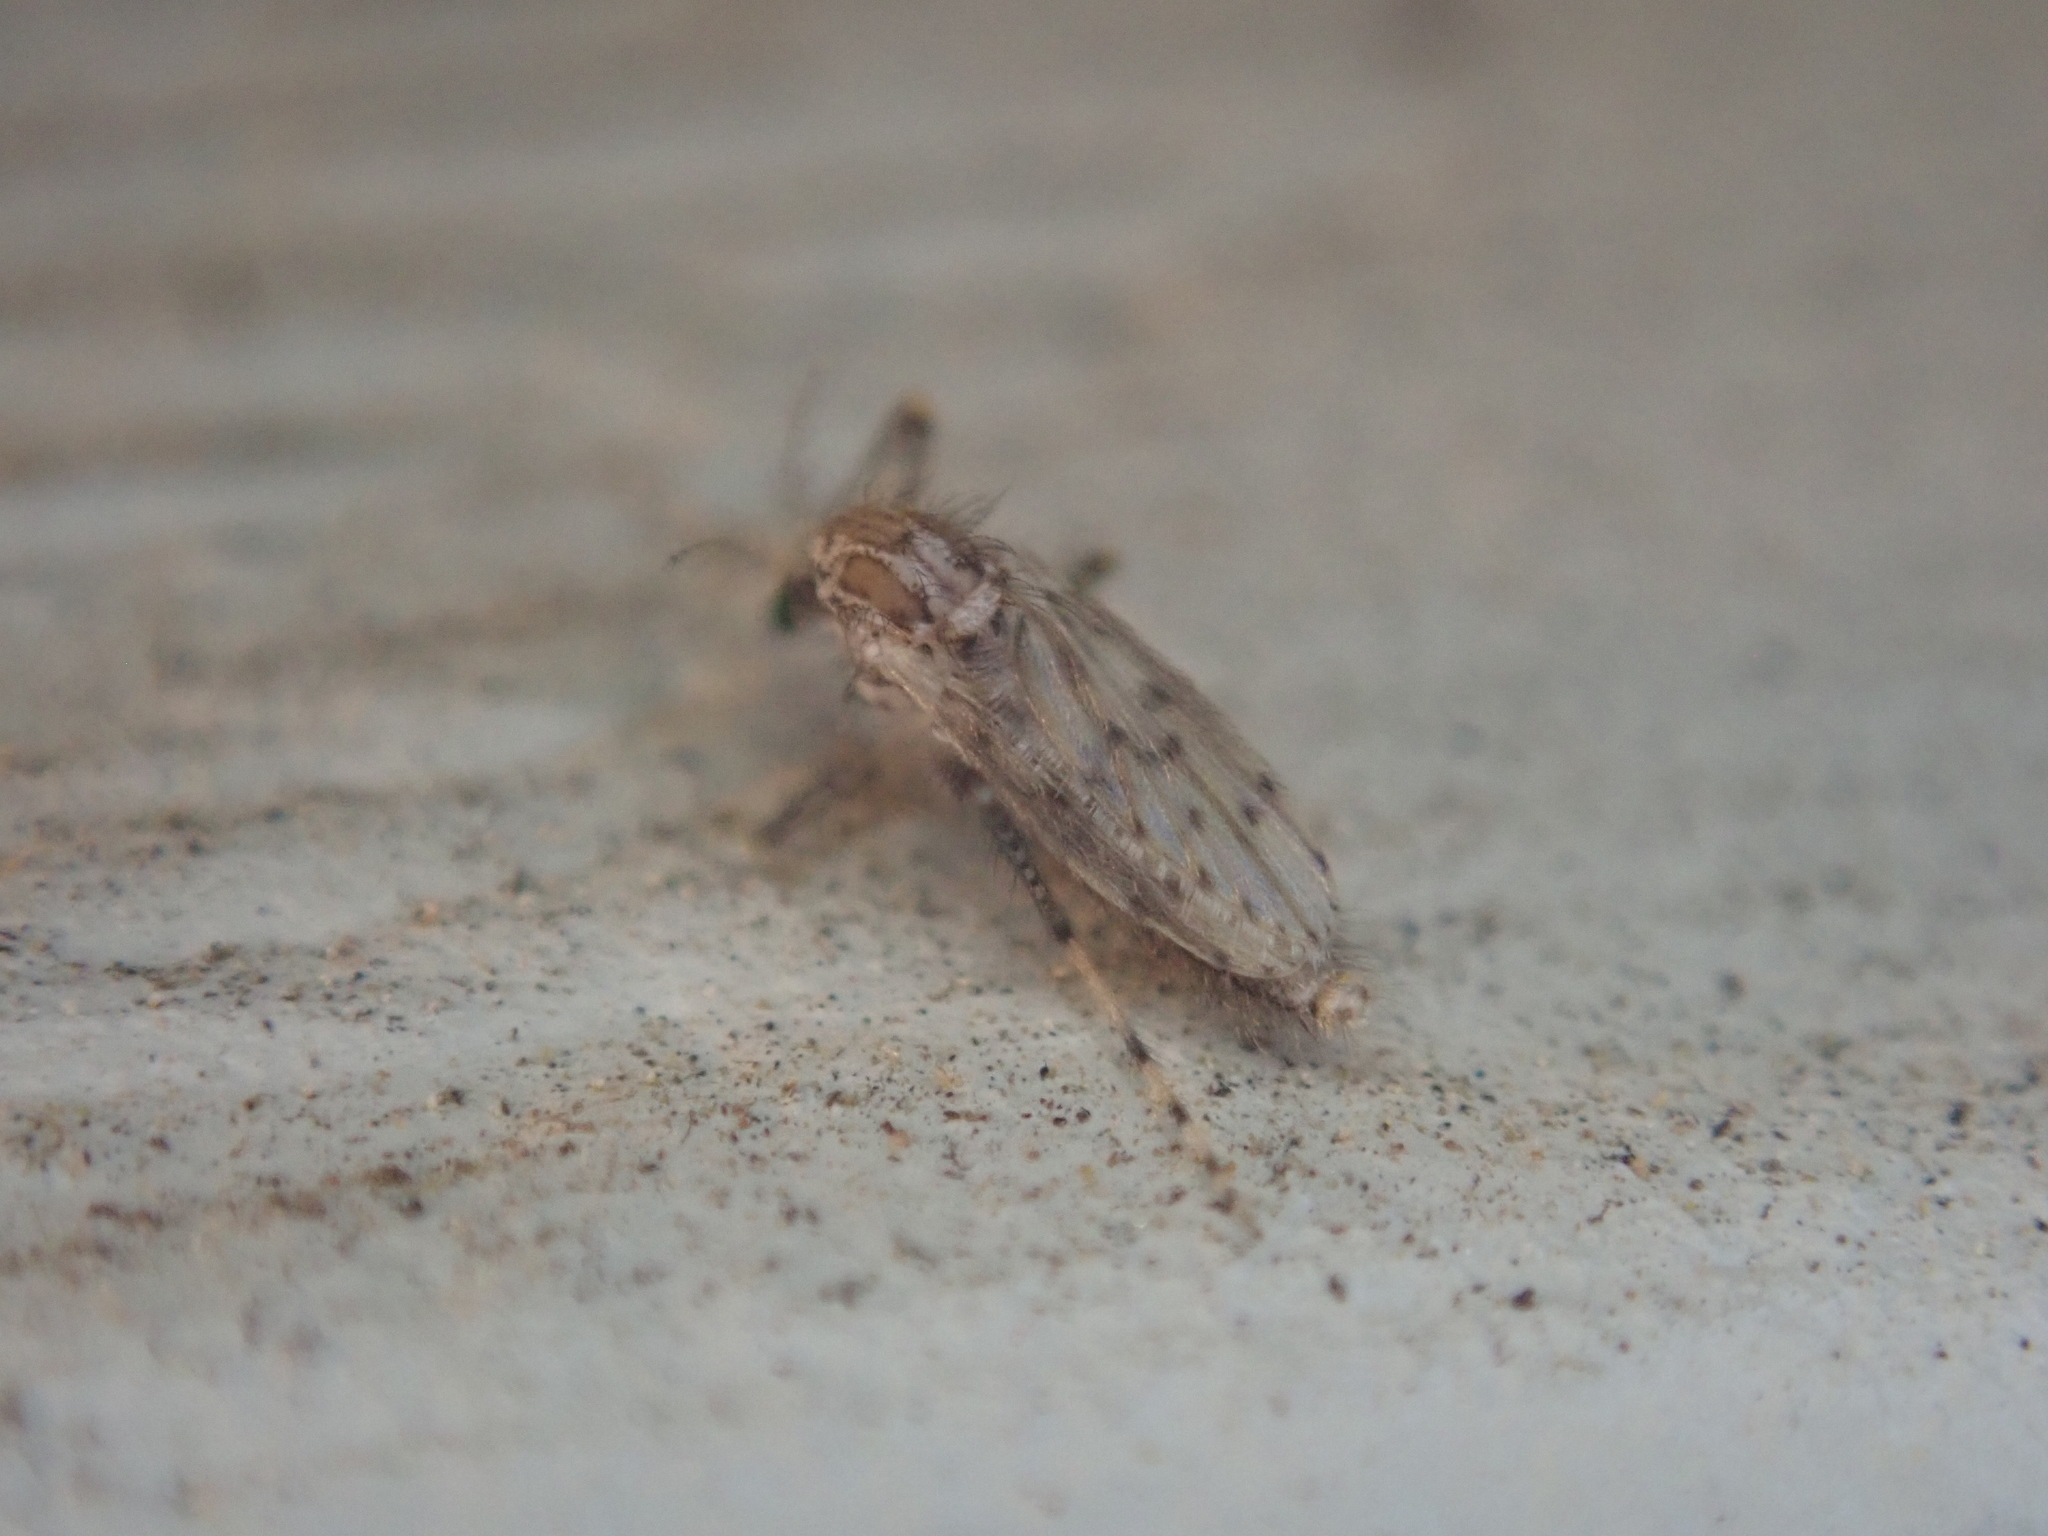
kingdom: Animalia
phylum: Arthropoda
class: Insecta
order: Diptera
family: Chaoboridae
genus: Chaoborus
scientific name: Chaoborus punctipennis
